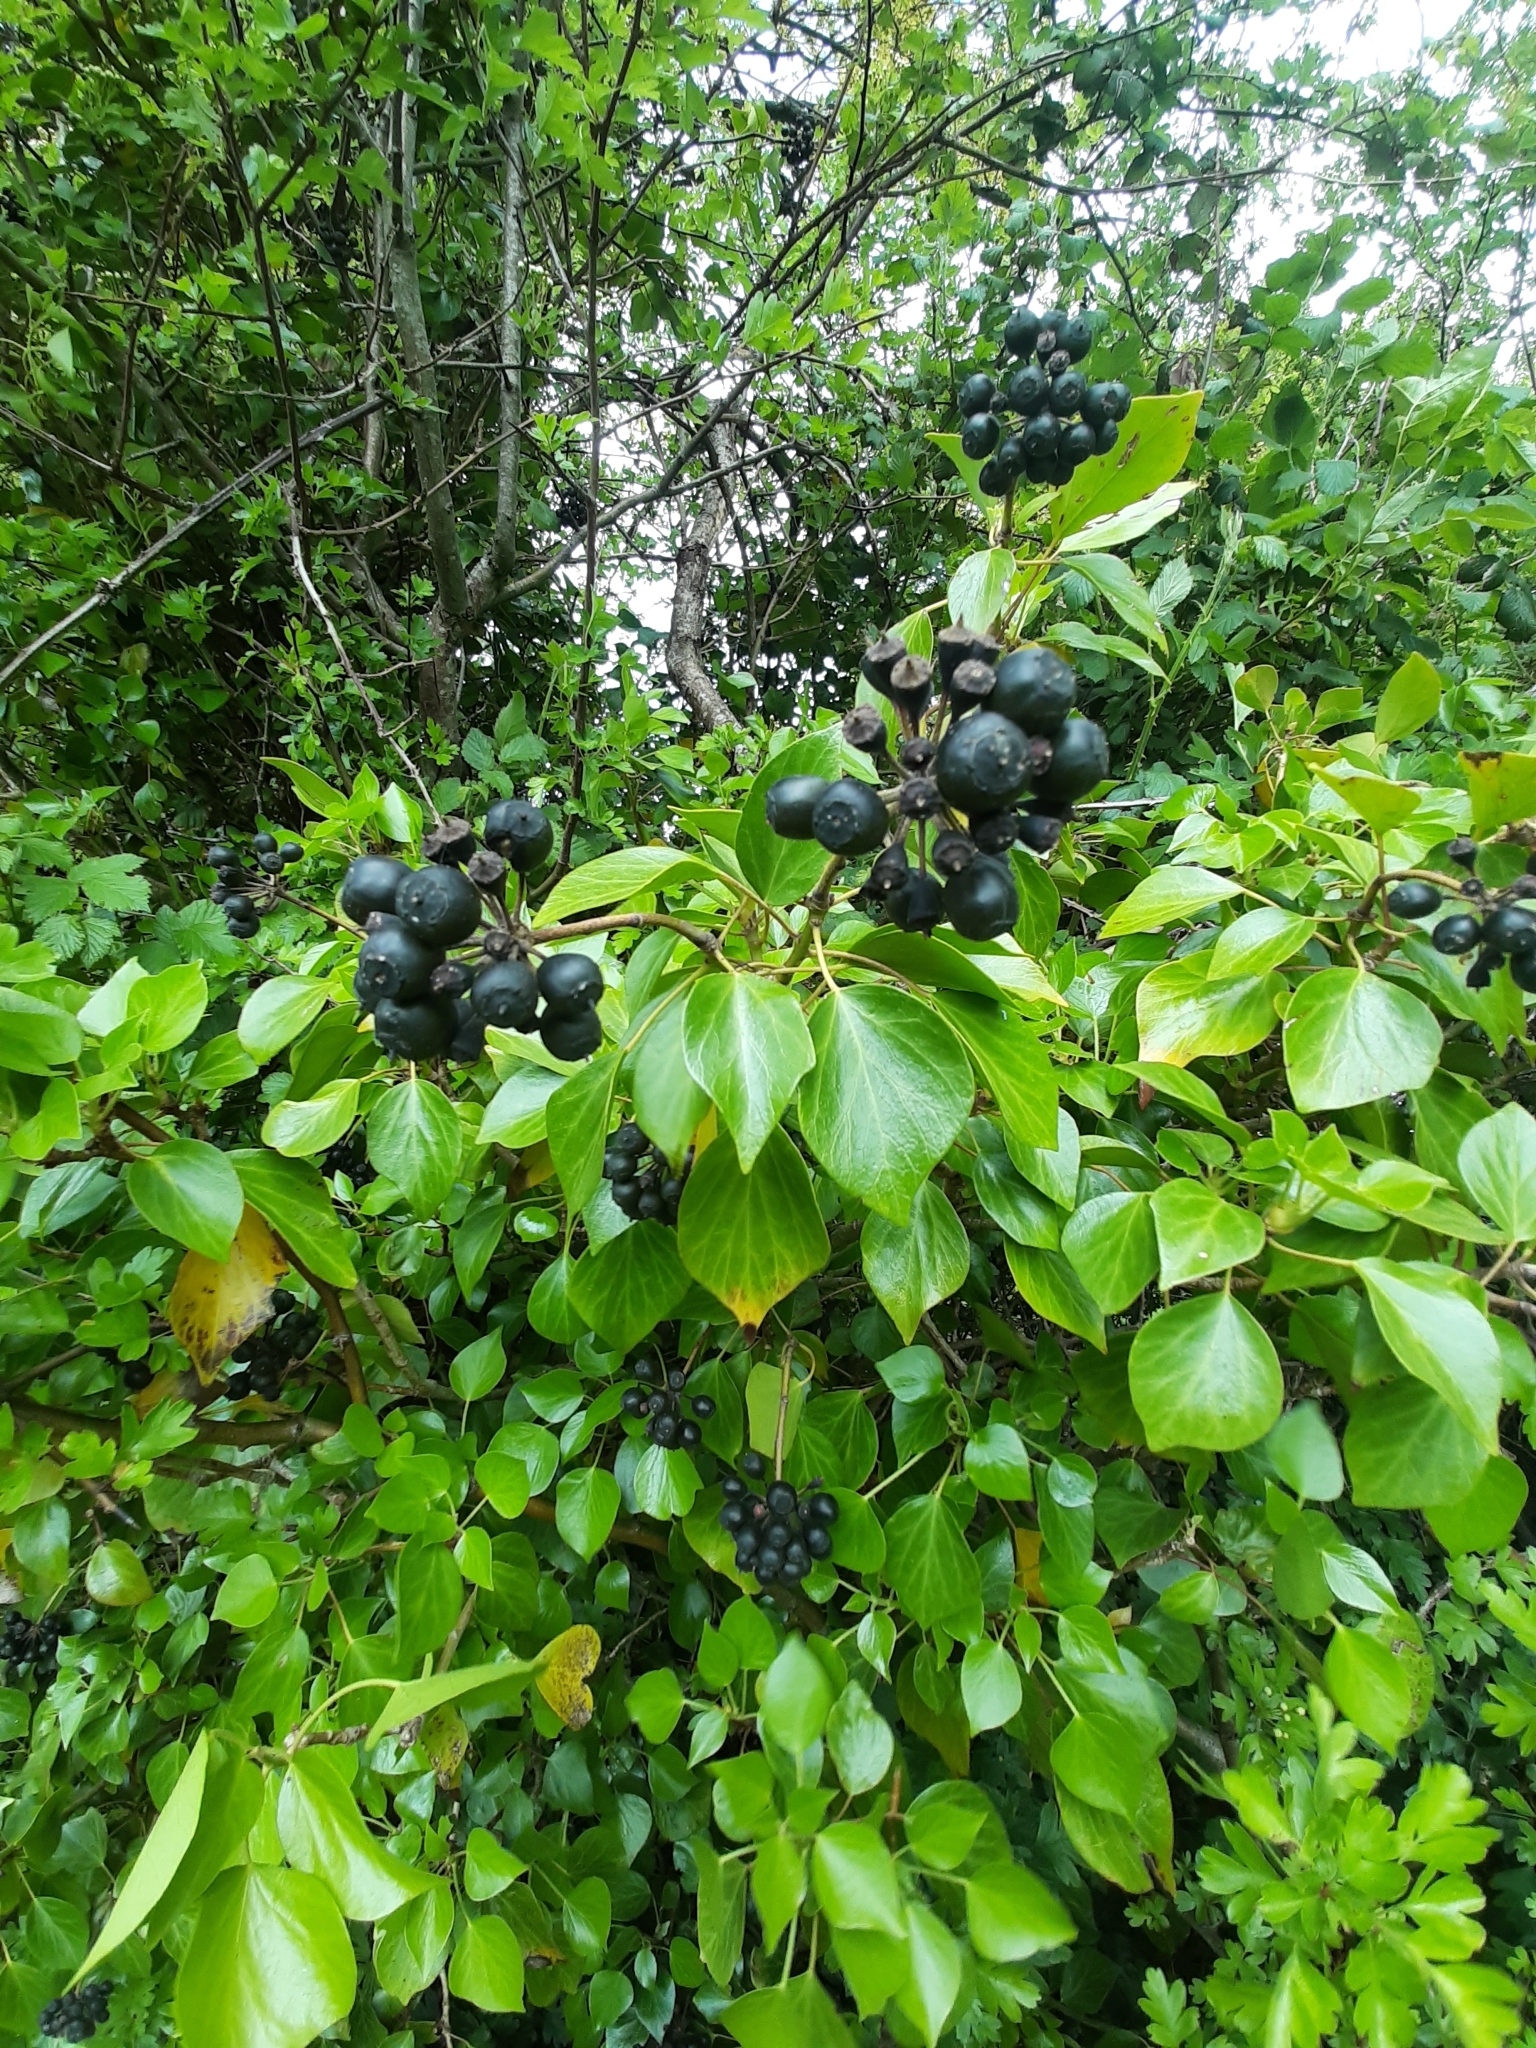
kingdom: Plantae
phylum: Tracheophyta
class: Magnoliopsida
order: Rosales
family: Rosaceae
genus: Aronia
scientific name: Aronia melanocarpa
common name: Black chokeberry
